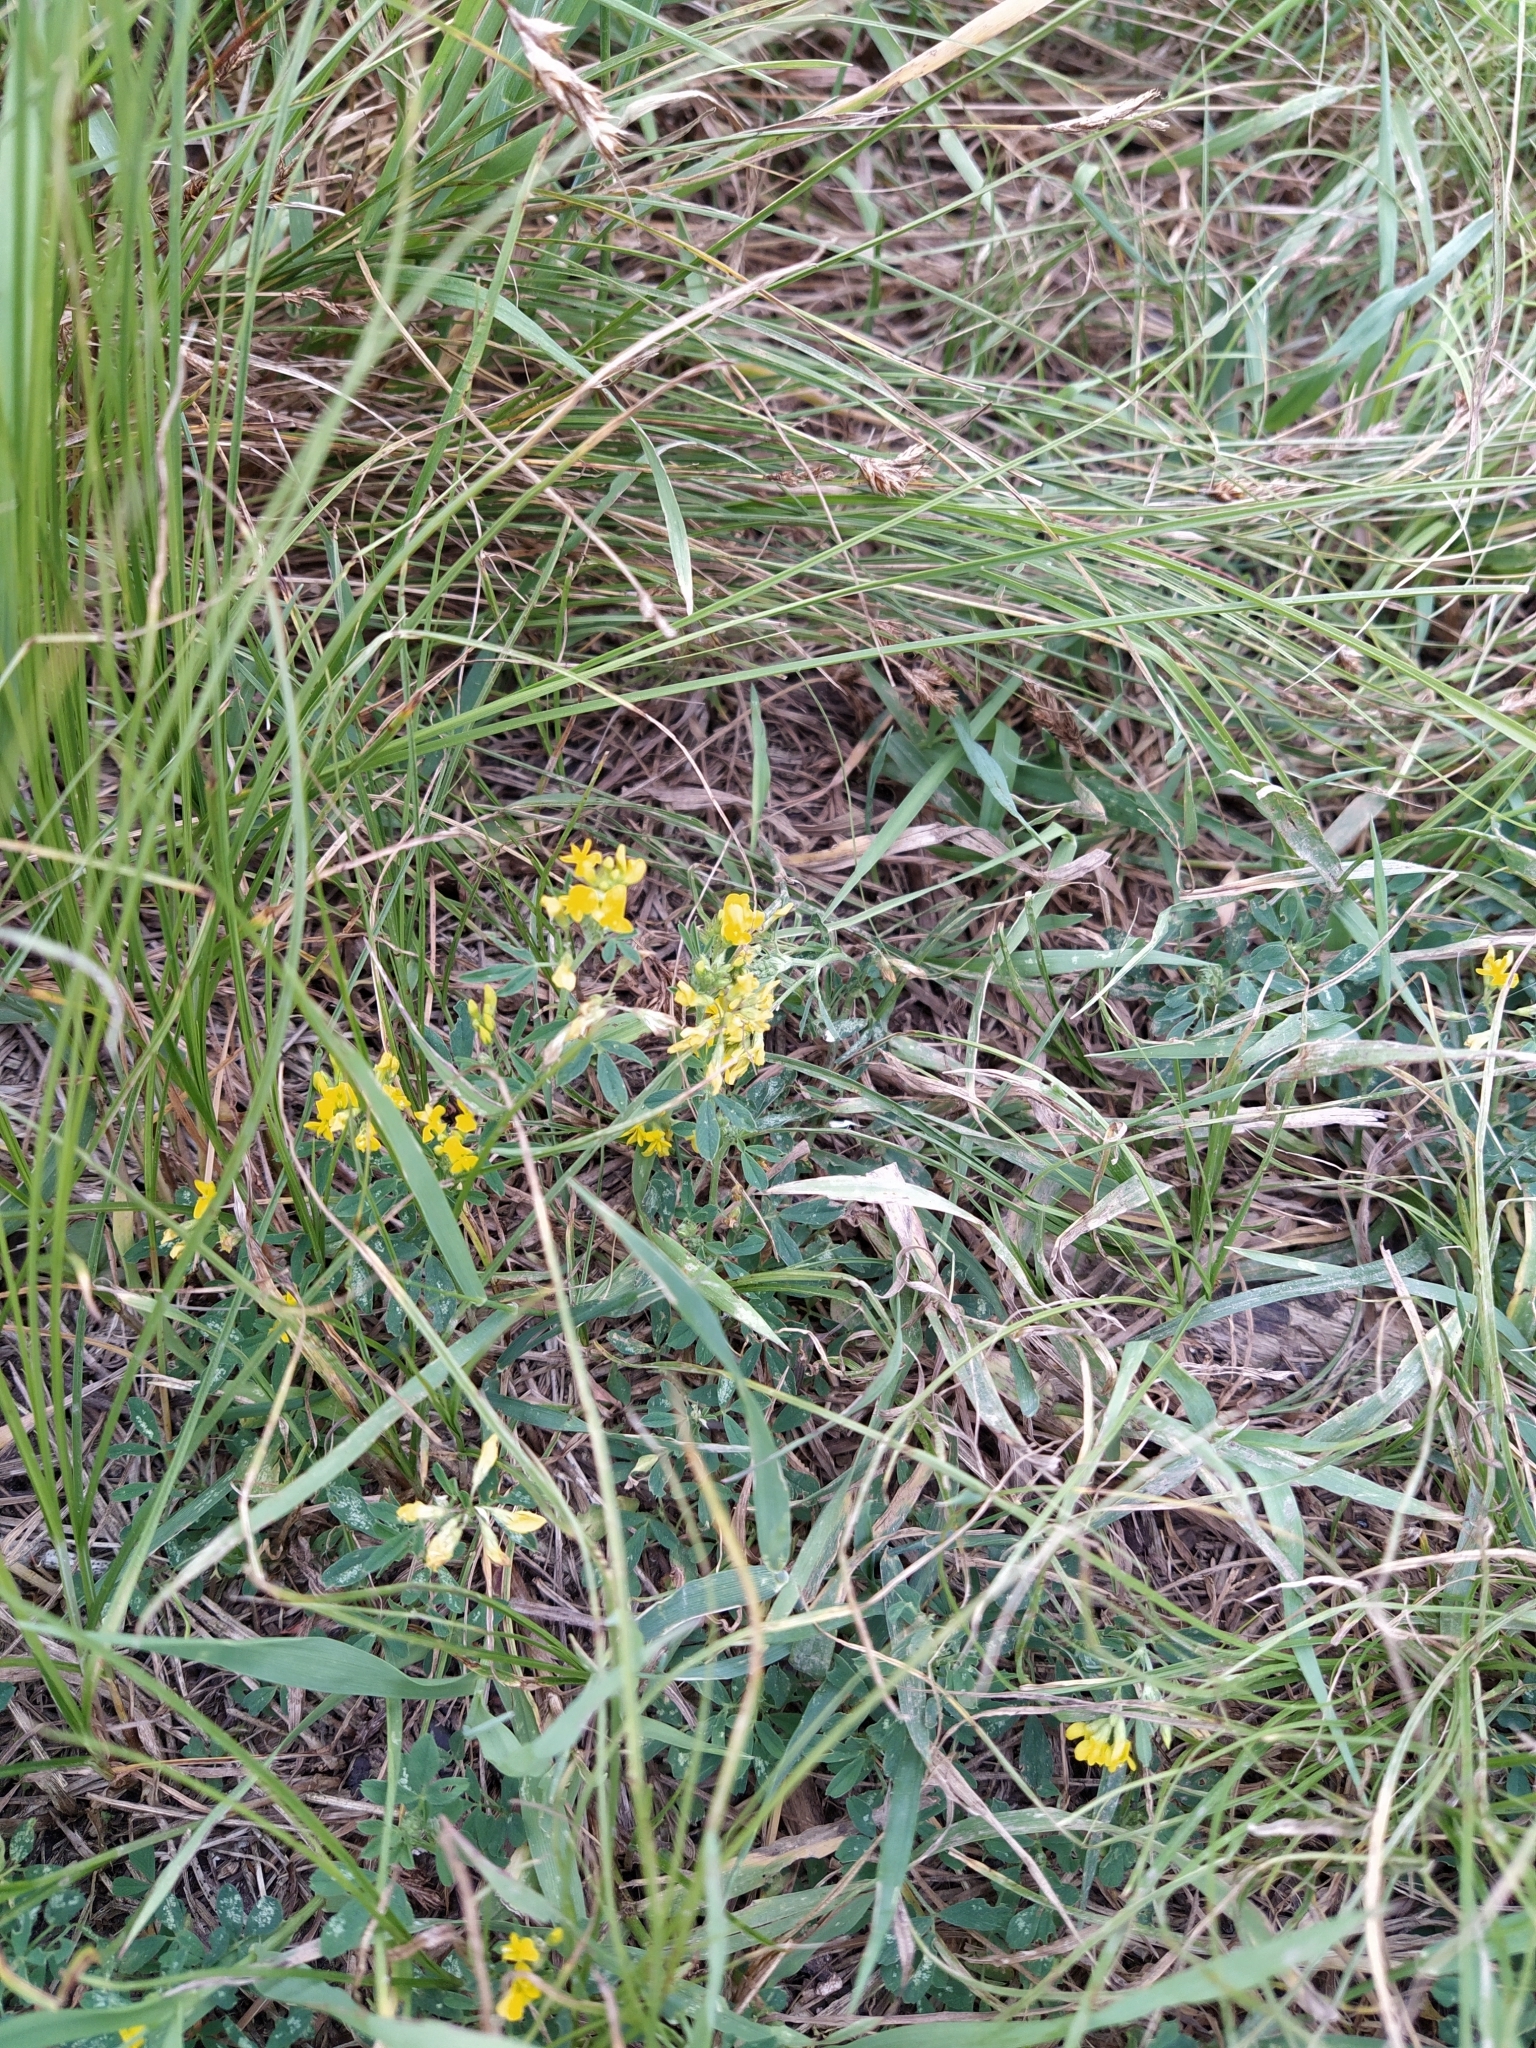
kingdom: Plantae
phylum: Tracheophyta
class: Magnoliopsida
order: Fabales
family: Fabaceae
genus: Medicago
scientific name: Medicago falcata
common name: Sickle medick
